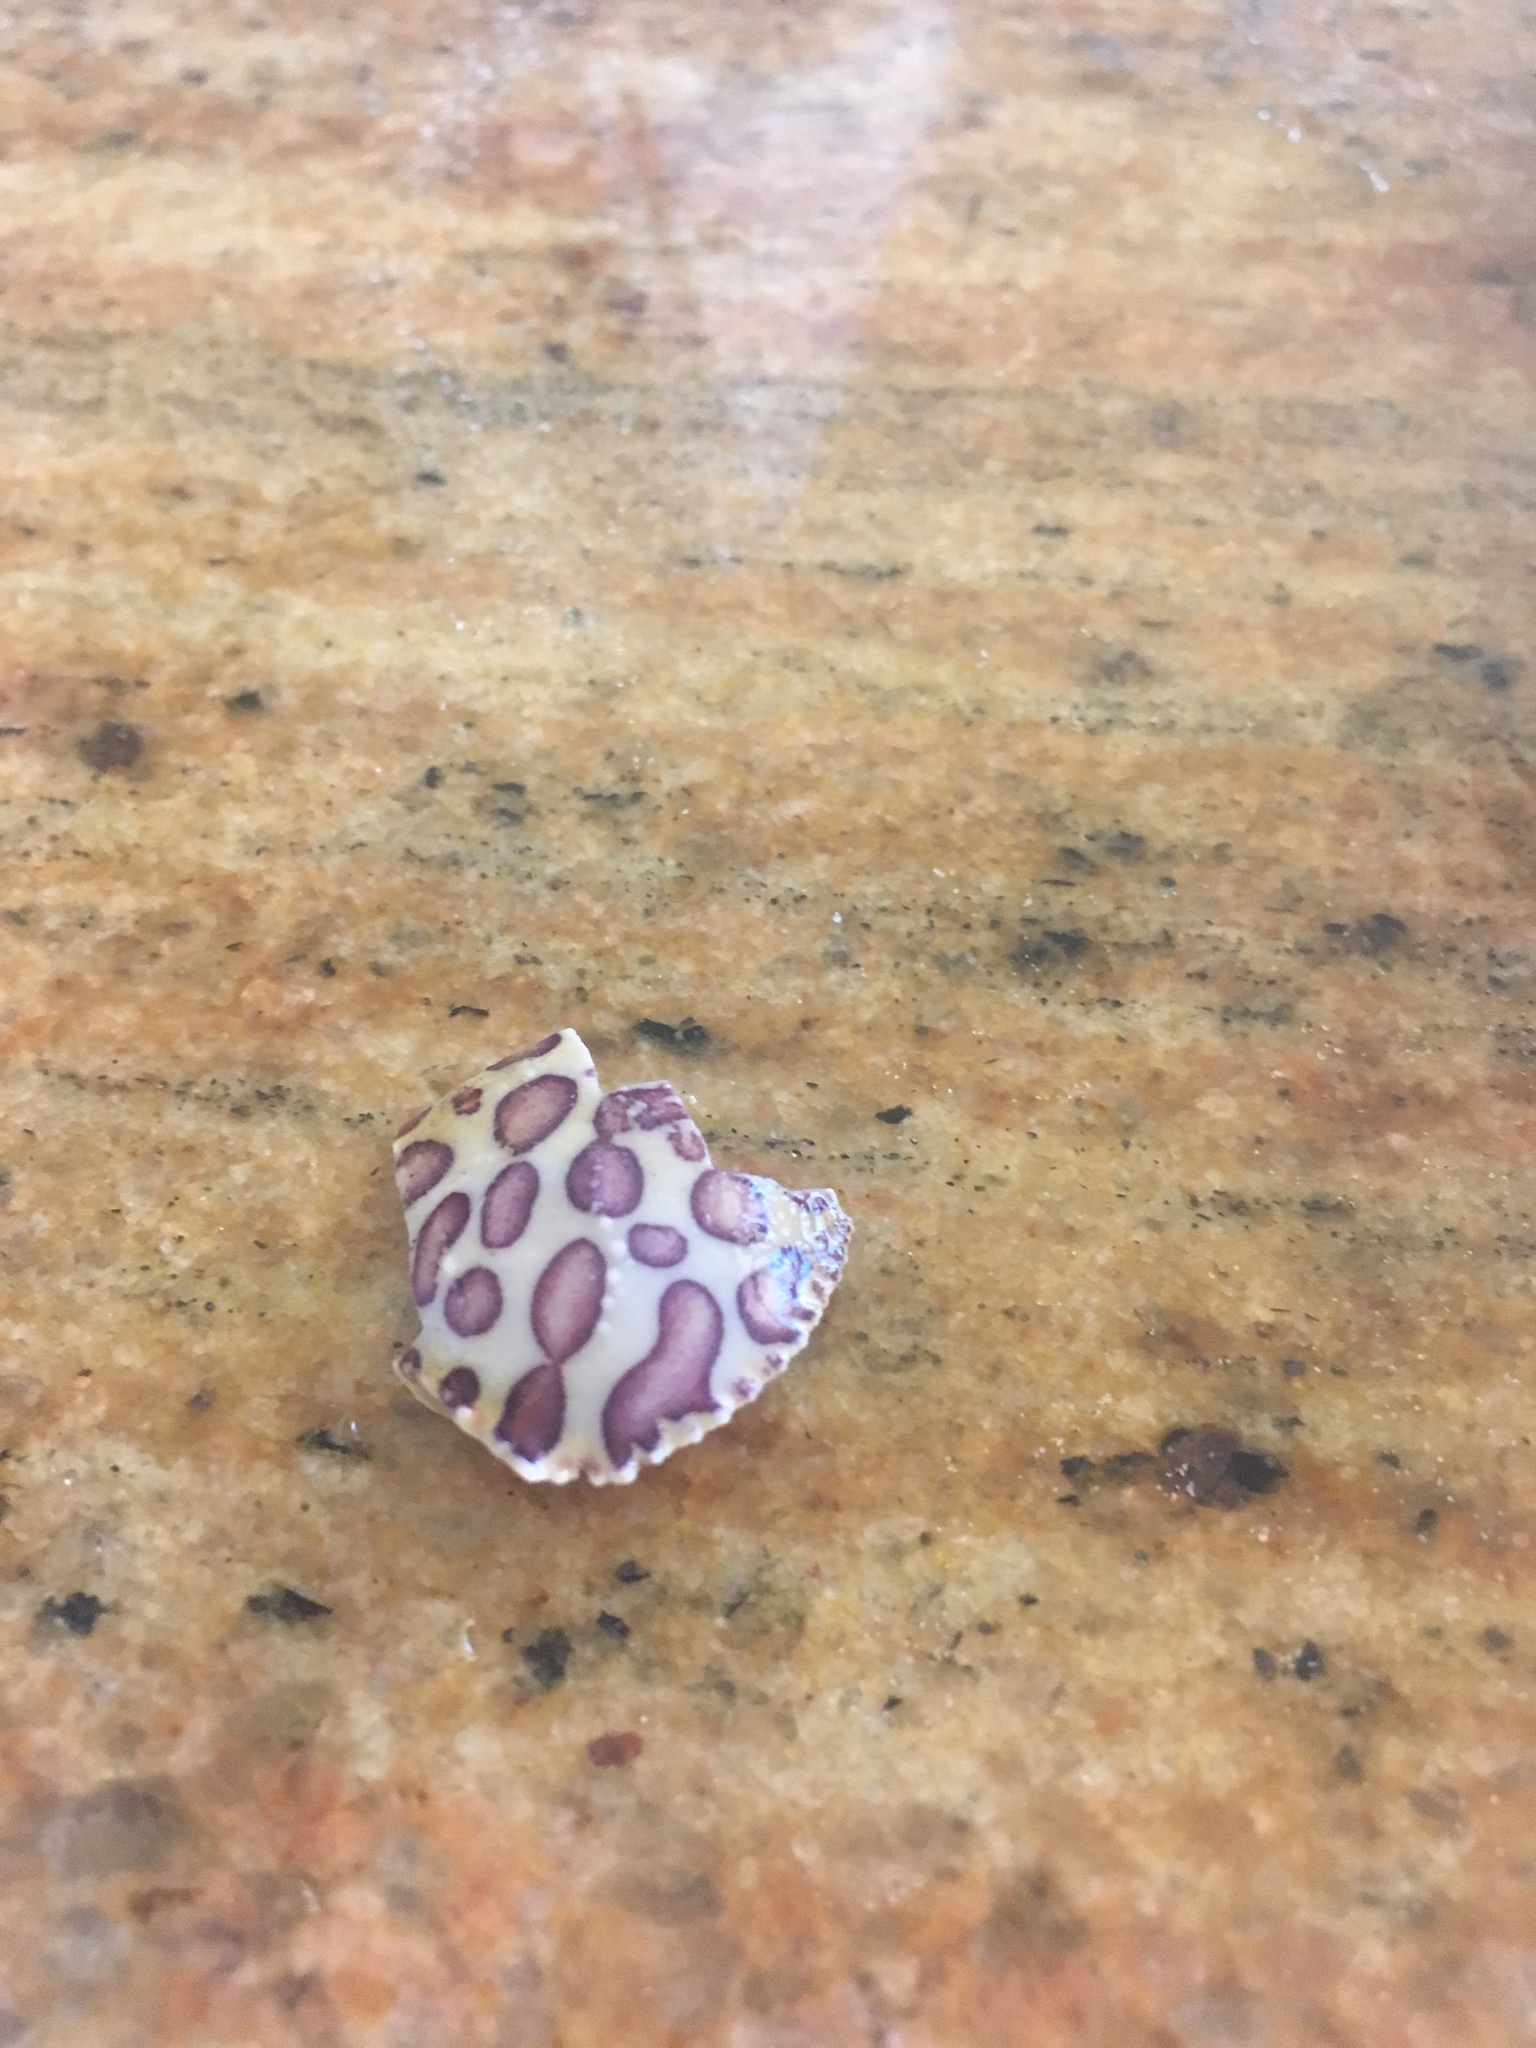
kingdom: Animalia
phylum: Arthropoda
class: Malacostraca
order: Decapoda
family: Aethridae
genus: Hepatus
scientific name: Hepatus epheliticus
